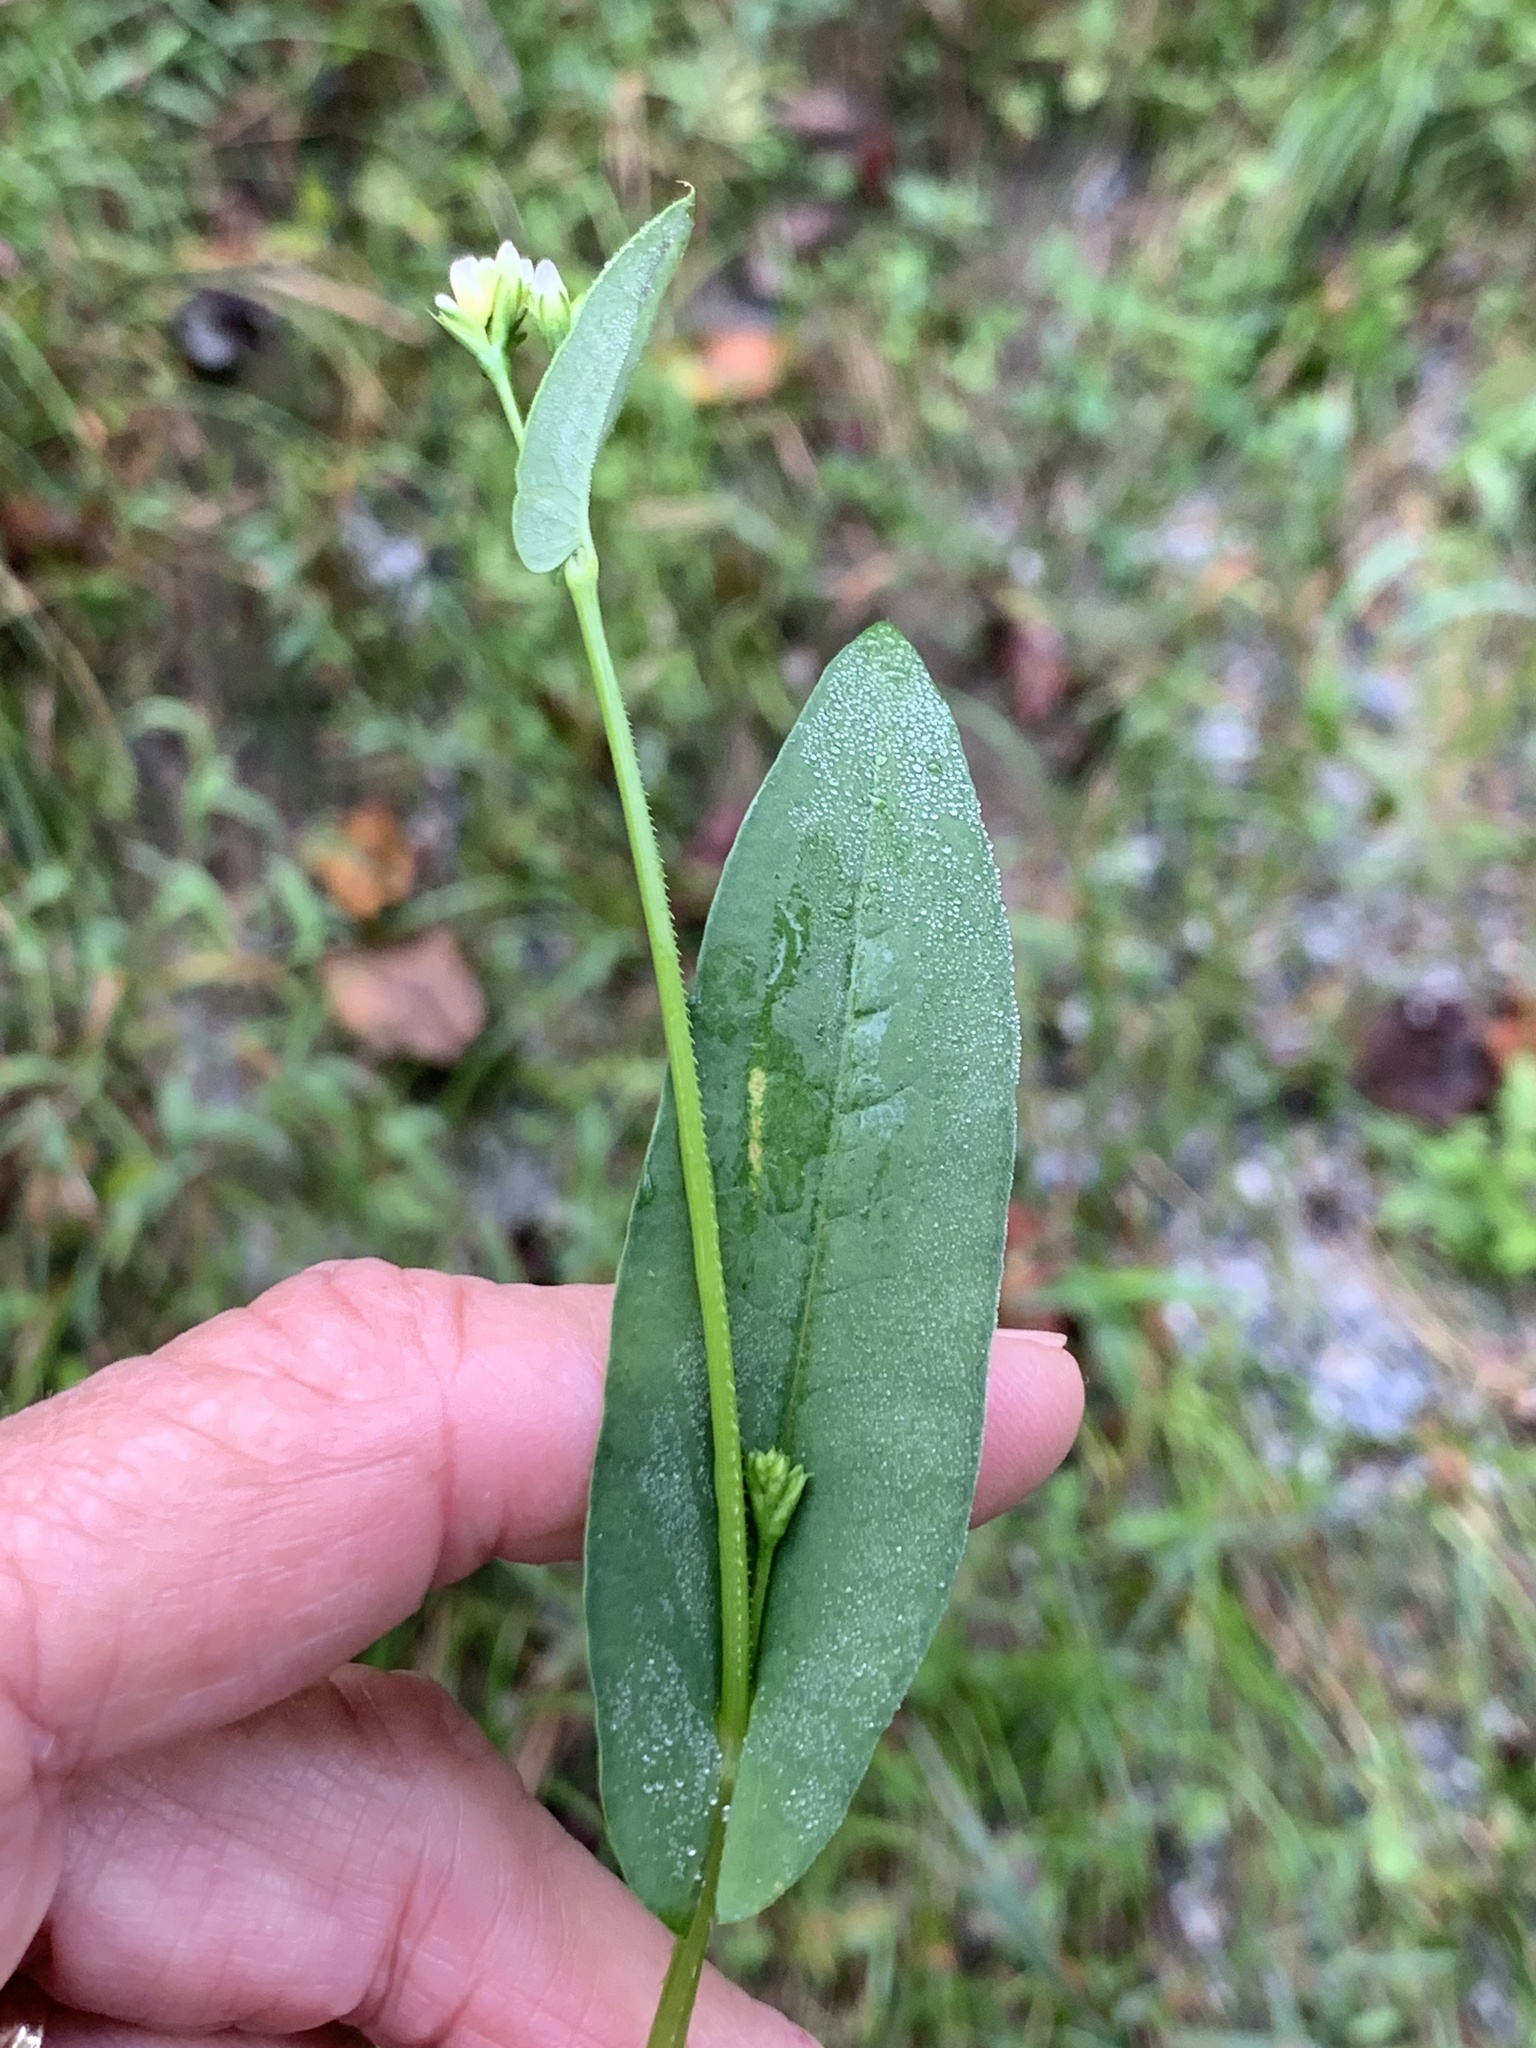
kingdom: Plantae
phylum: Tracheophyta
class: Magnoliopsida
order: Caryophyllales
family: Polygonaceae
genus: Persicaria
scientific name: Persicaria sagittata
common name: American tearthumb
